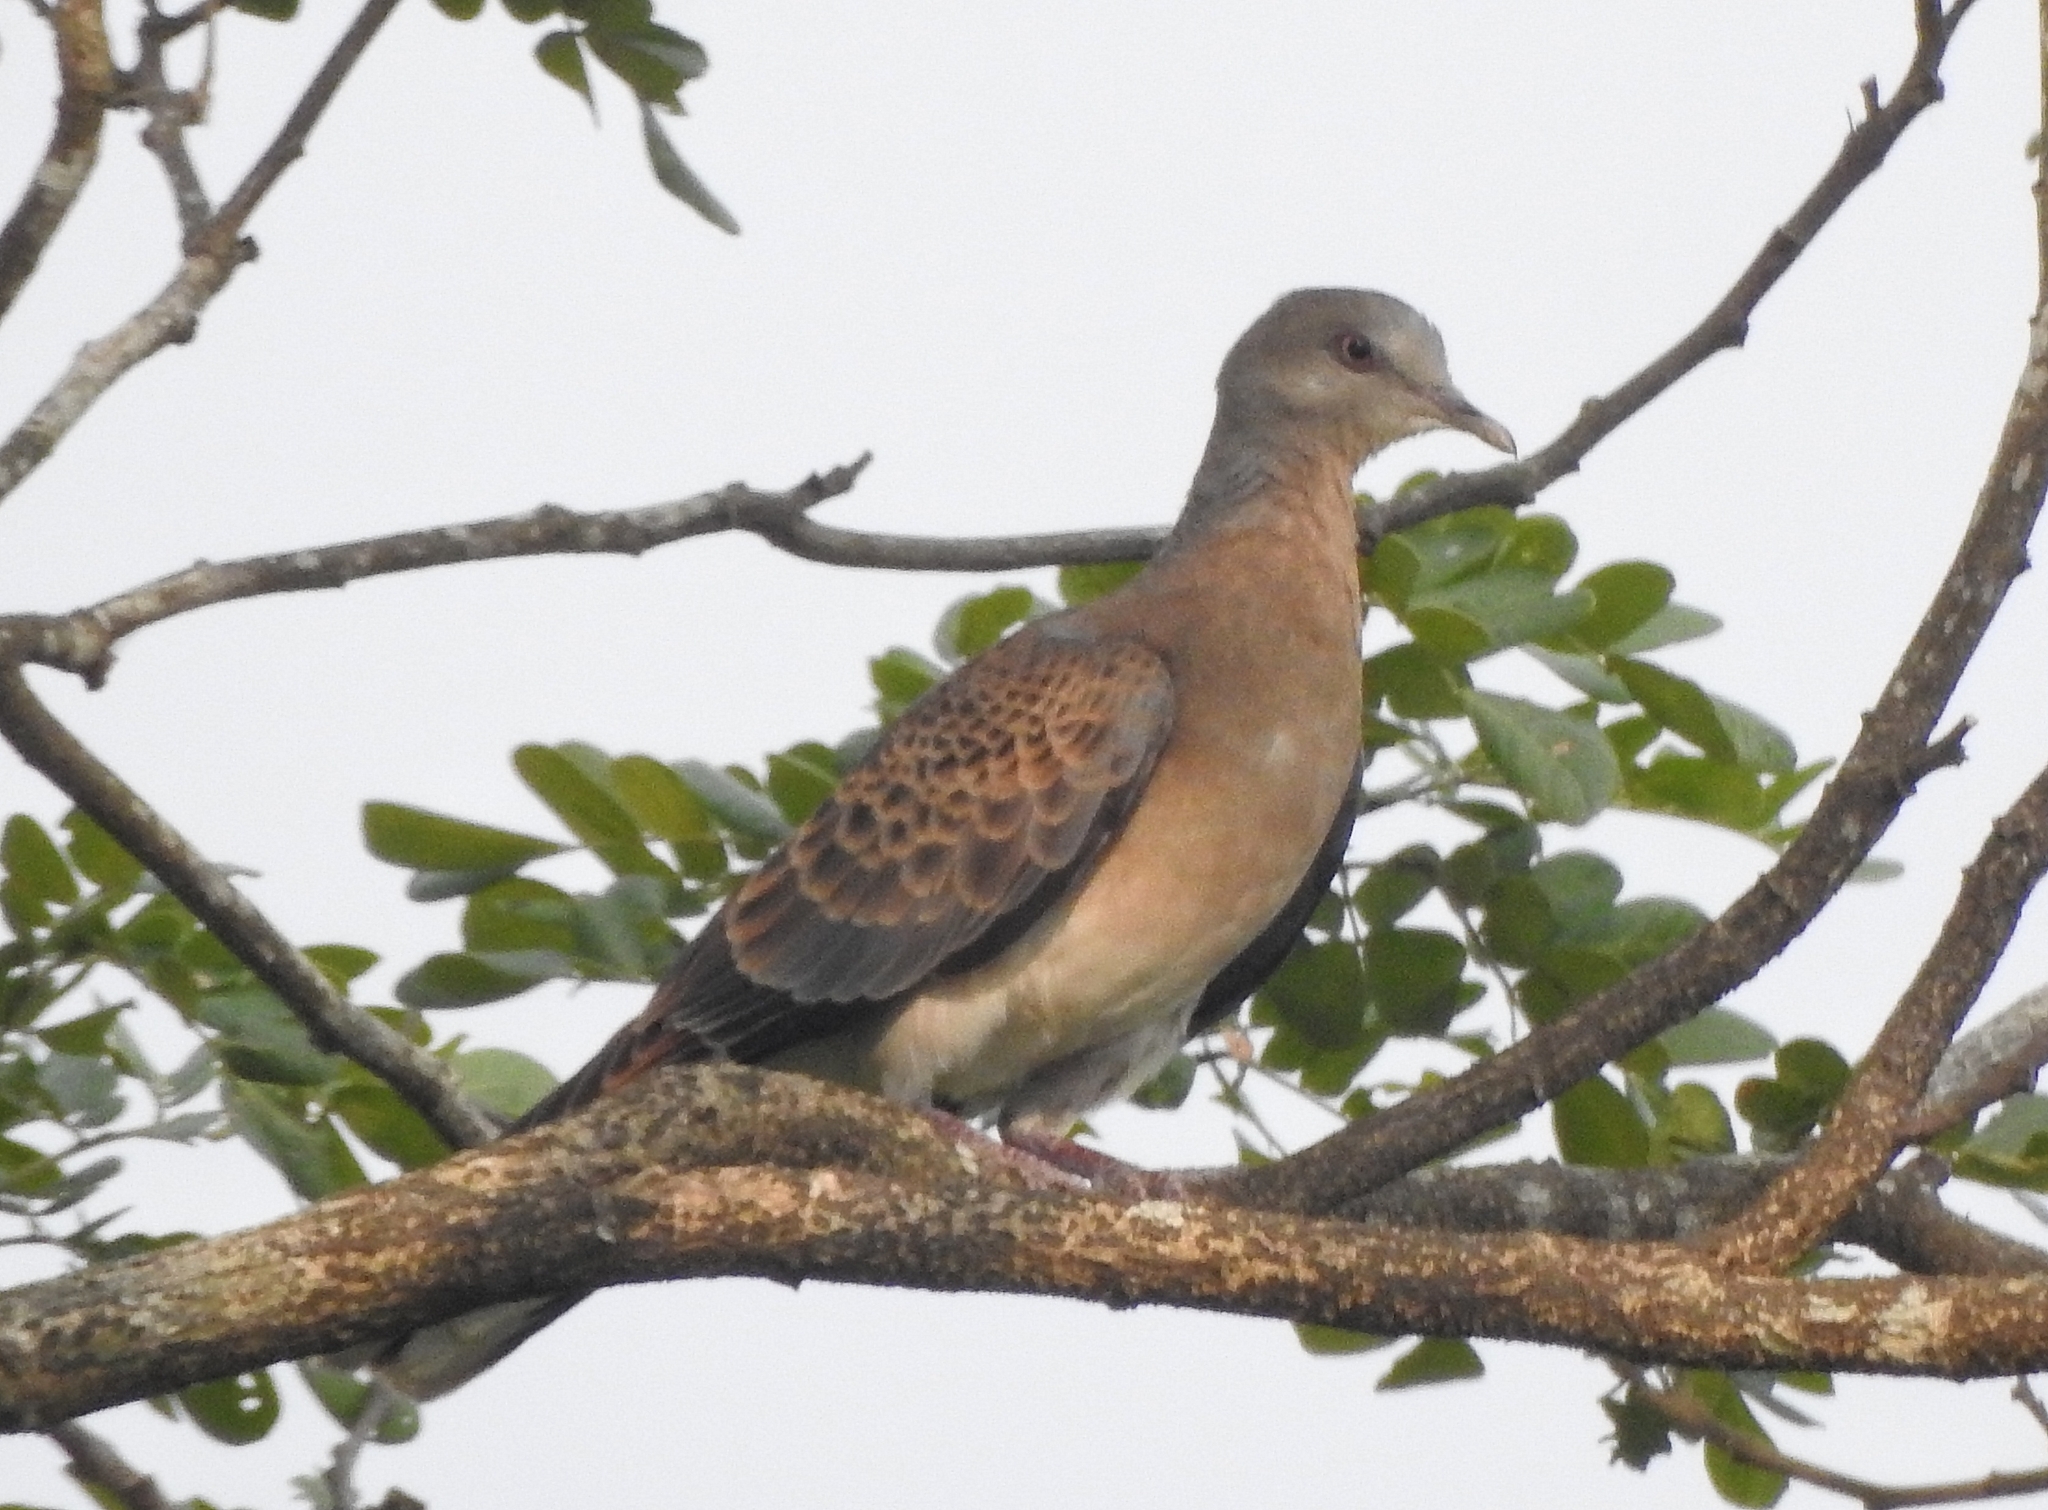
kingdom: Animalia
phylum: Chordata
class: Aves
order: Columbiformes
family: Columbidae
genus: Streptopelia
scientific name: Streptopelia orientalis
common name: Oriental turtle dove
